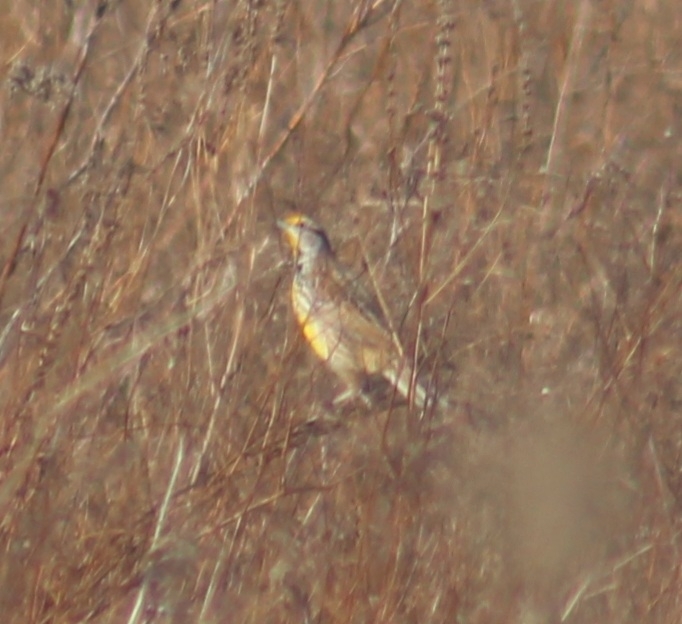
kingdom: Animalia
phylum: Chordata
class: Aves
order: Passeriformes
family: Icteridae
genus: Sturnella
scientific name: Sturnella magna
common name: Eastern meadowlark
